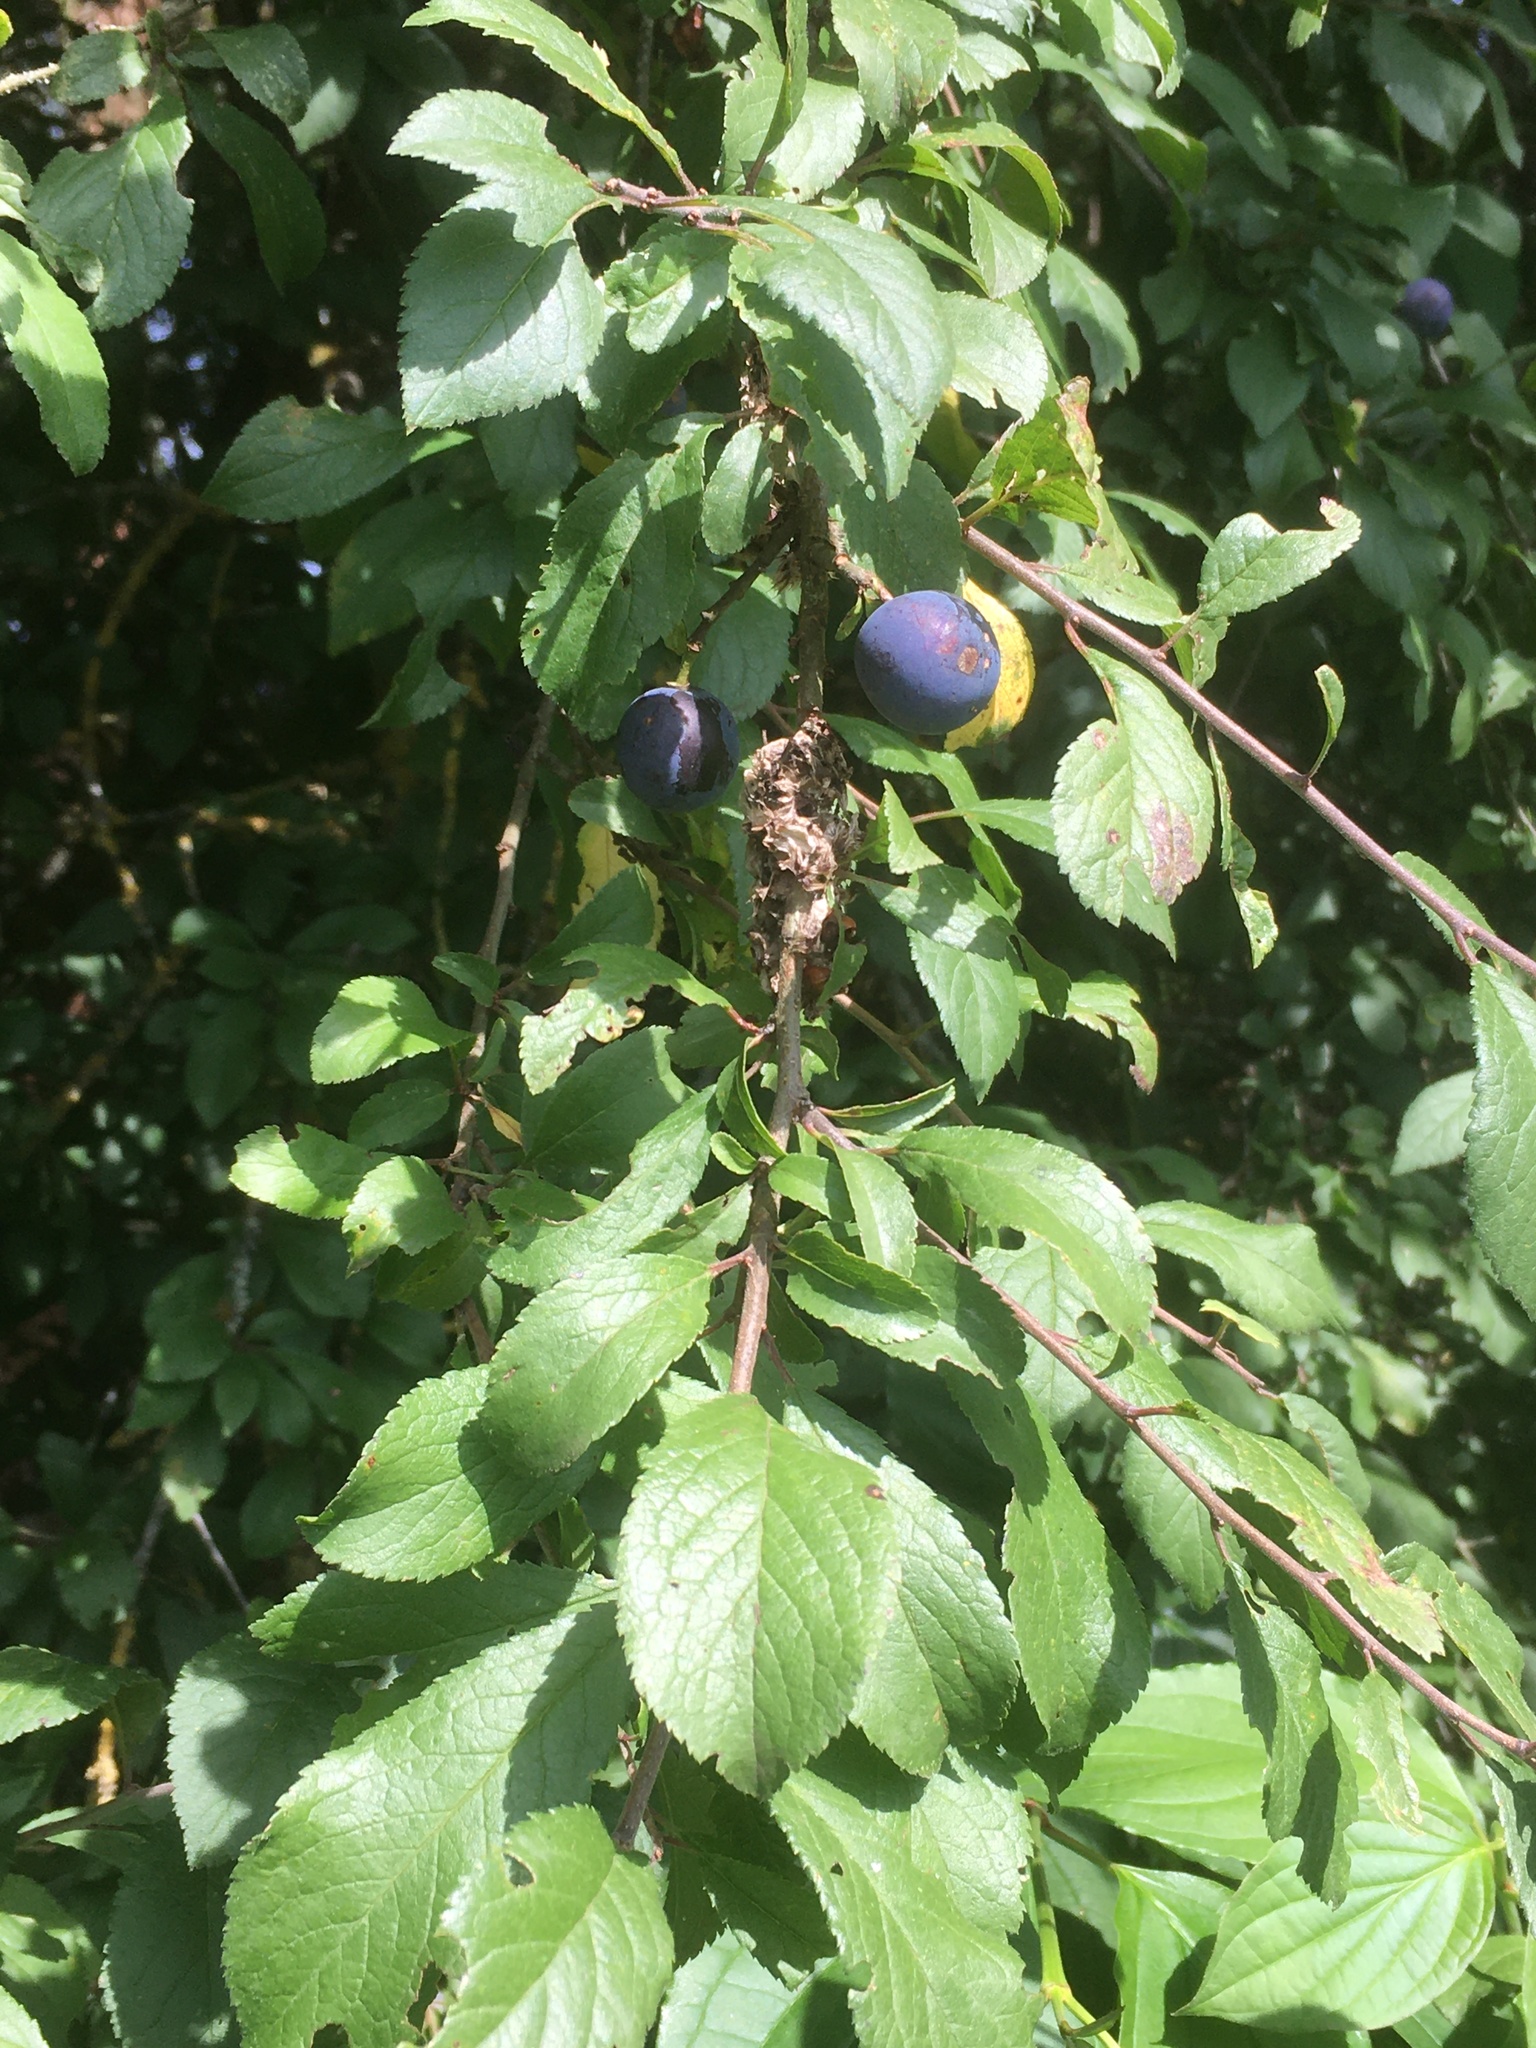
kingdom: Plantae
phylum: Tracheophyta
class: Magnoliopsida
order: Rosales
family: Rosaceae
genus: Prunus
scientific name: Prunus spinosa
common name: Blackthorn
